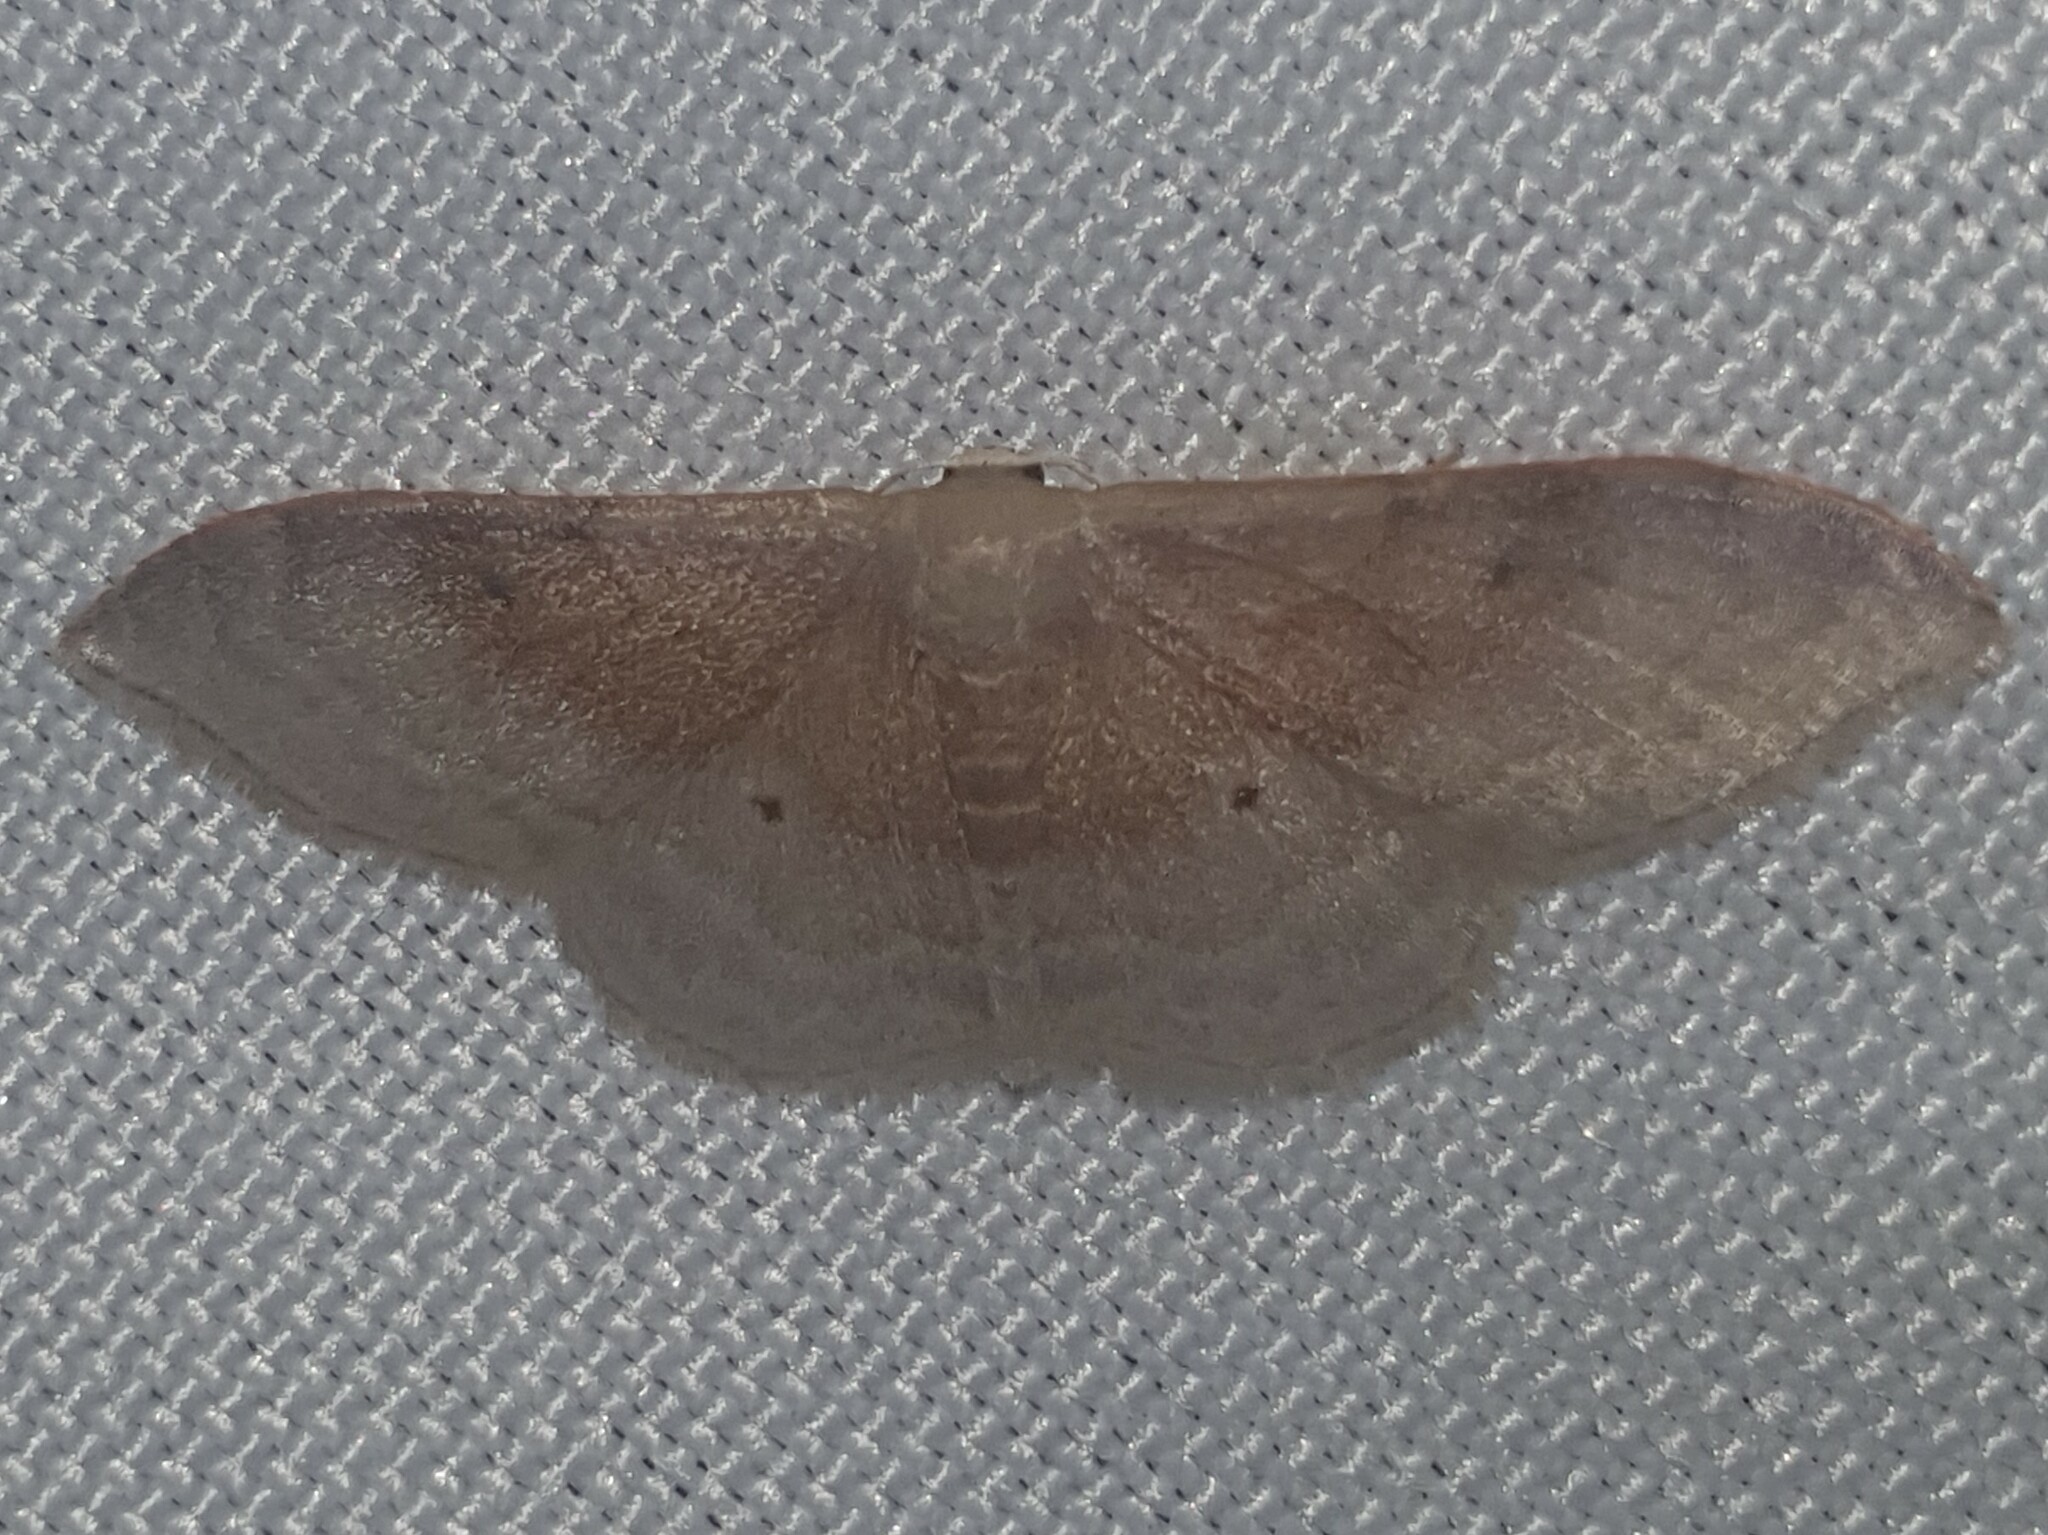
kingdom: Animalia
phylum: Arthropoda
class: Insecta
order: Lepidoptera
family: Geometridae
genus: Idaea
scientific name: Idaea degeneraria
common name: Portland ribbon wave
